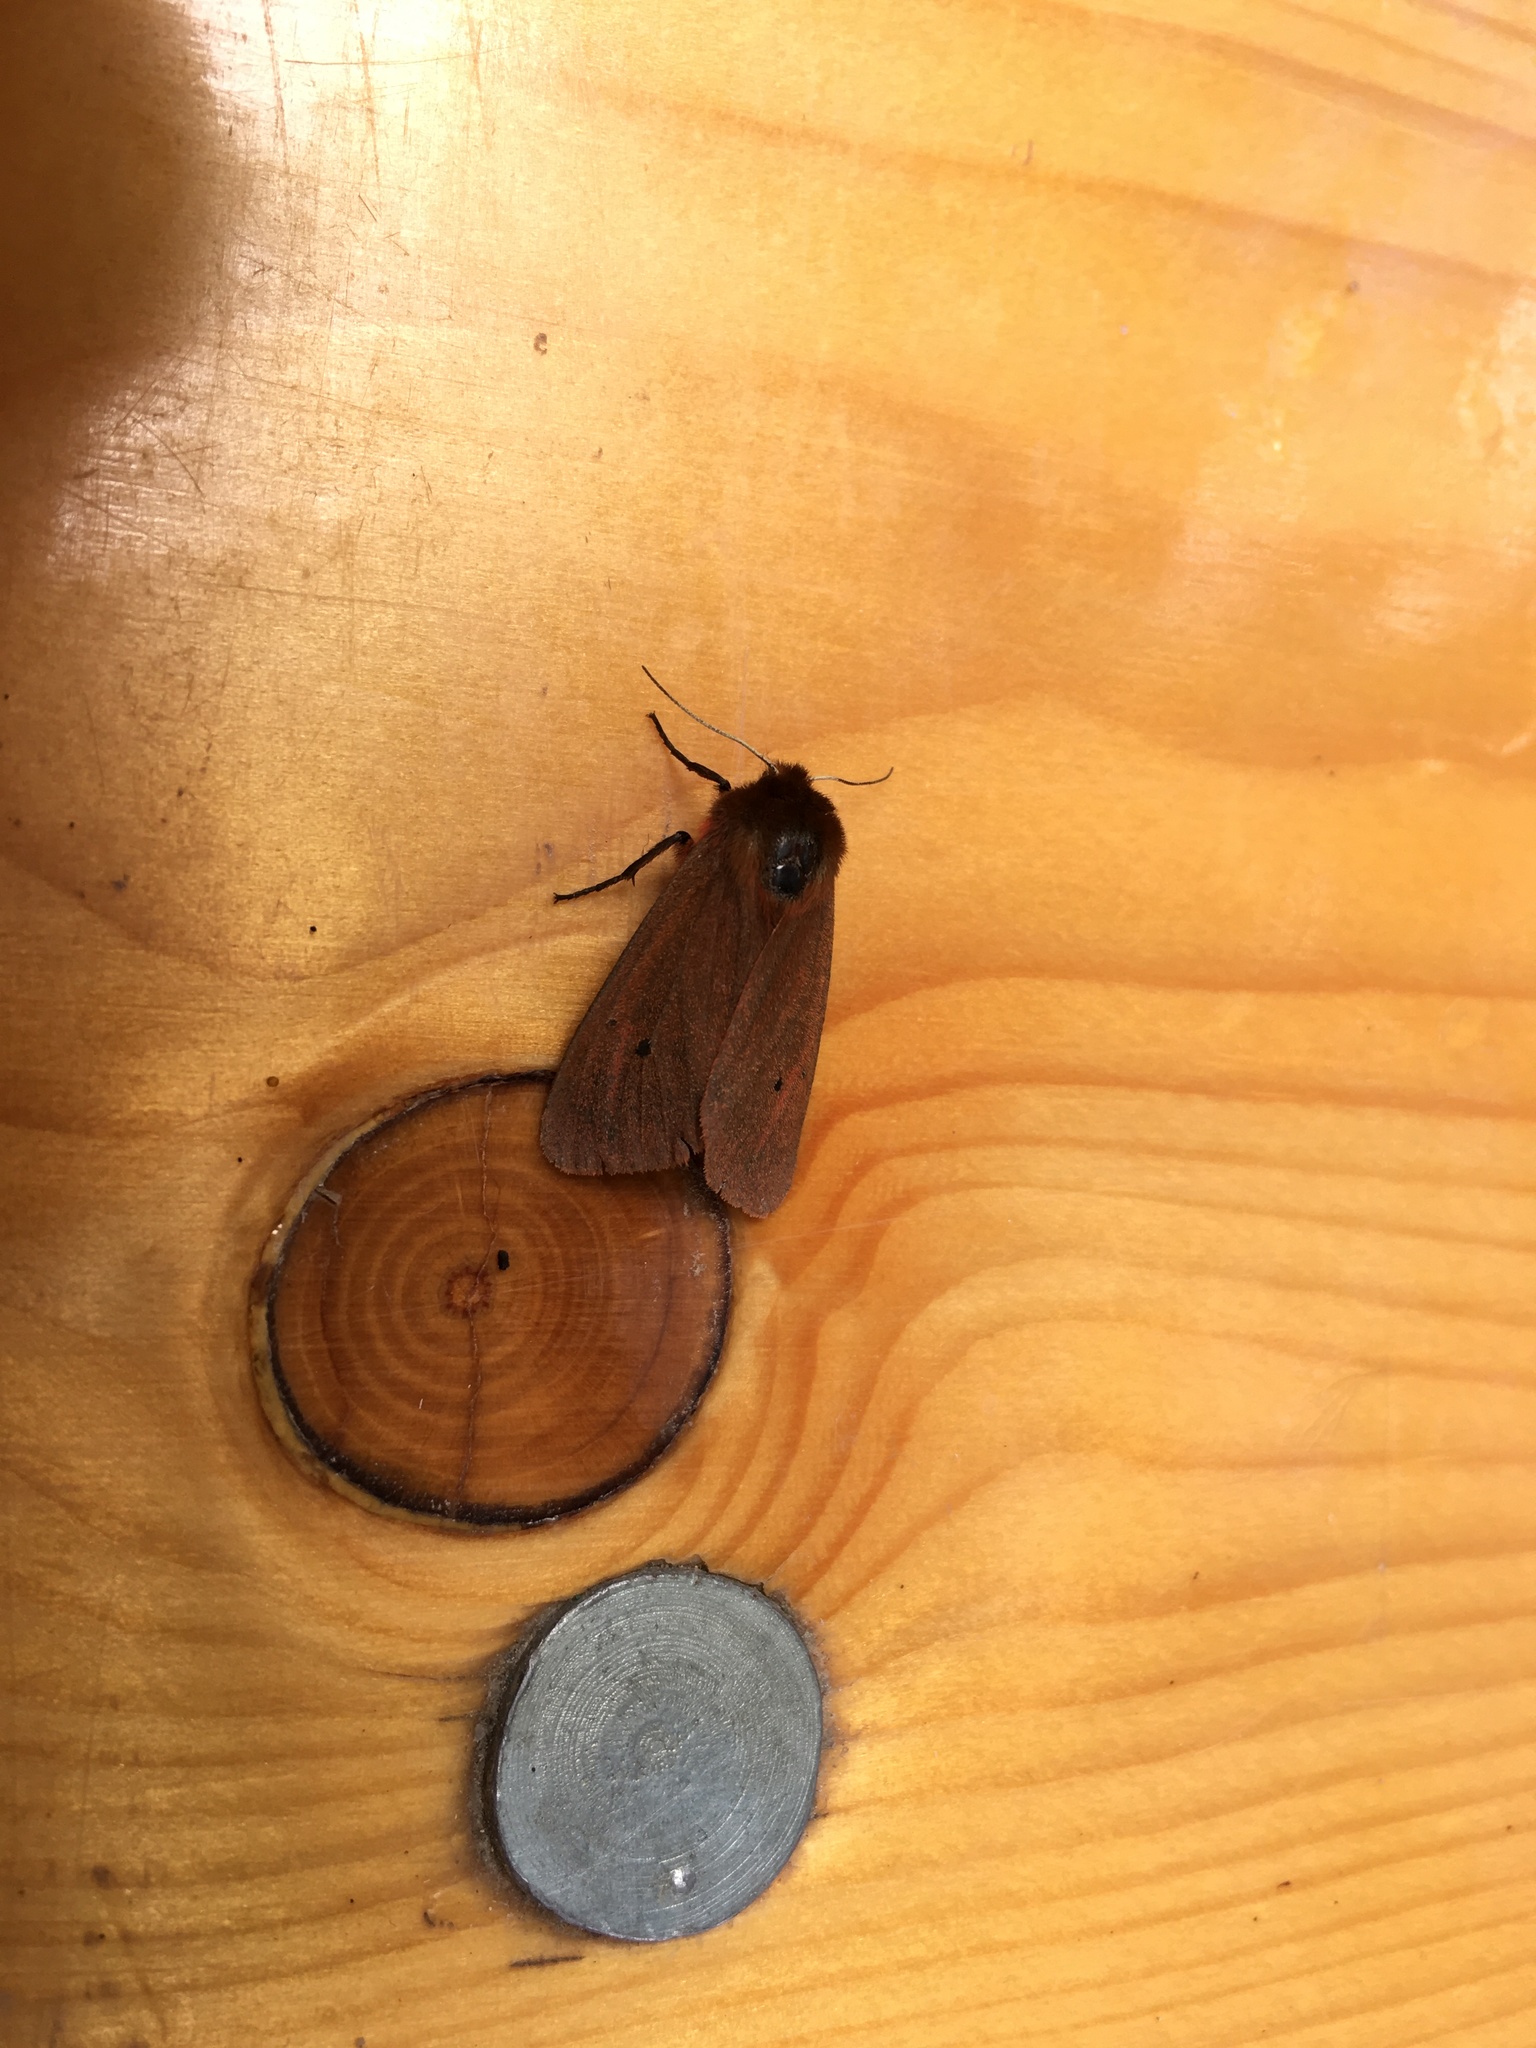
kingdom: Animalia
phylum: Arthropoda
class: Insecta
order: Lepidoptera
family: Erebidae
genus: Phragmatobia
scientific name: Phragmatobia fuliginosa
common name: Ruby tiger
